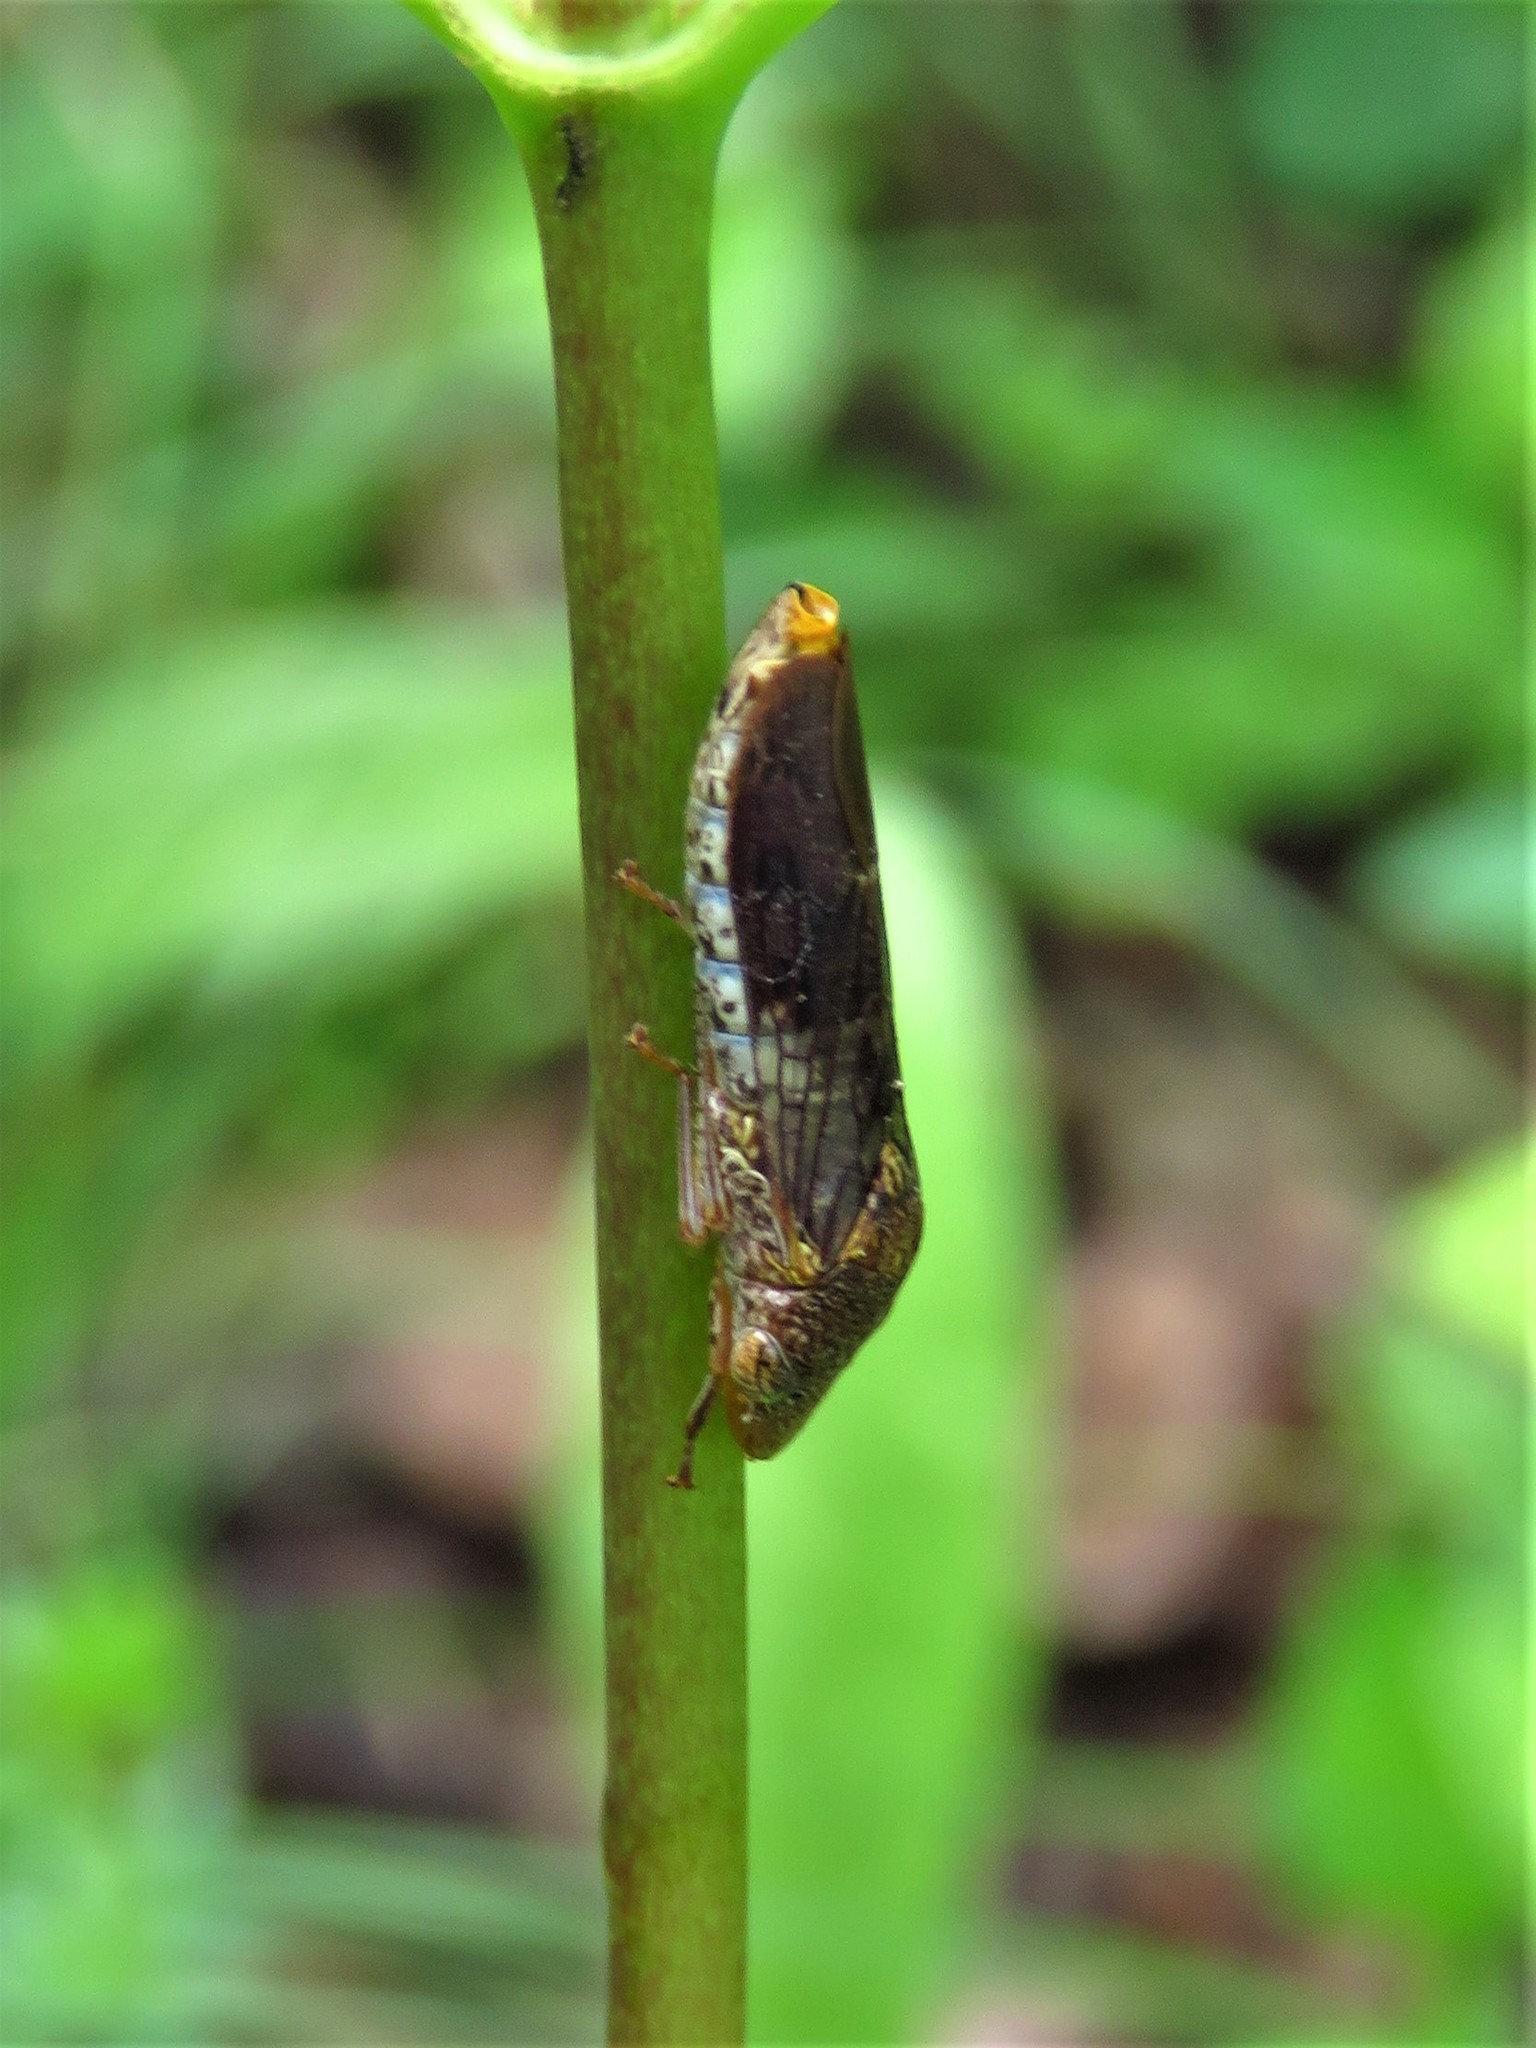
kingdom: Animalia
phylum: Arthropoda
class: Insecta
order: Hemiptera
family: Cicadellidae
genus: Homalodisca
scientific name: Homalodisca vitripennis
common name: Glassy-winged sharpshooter
